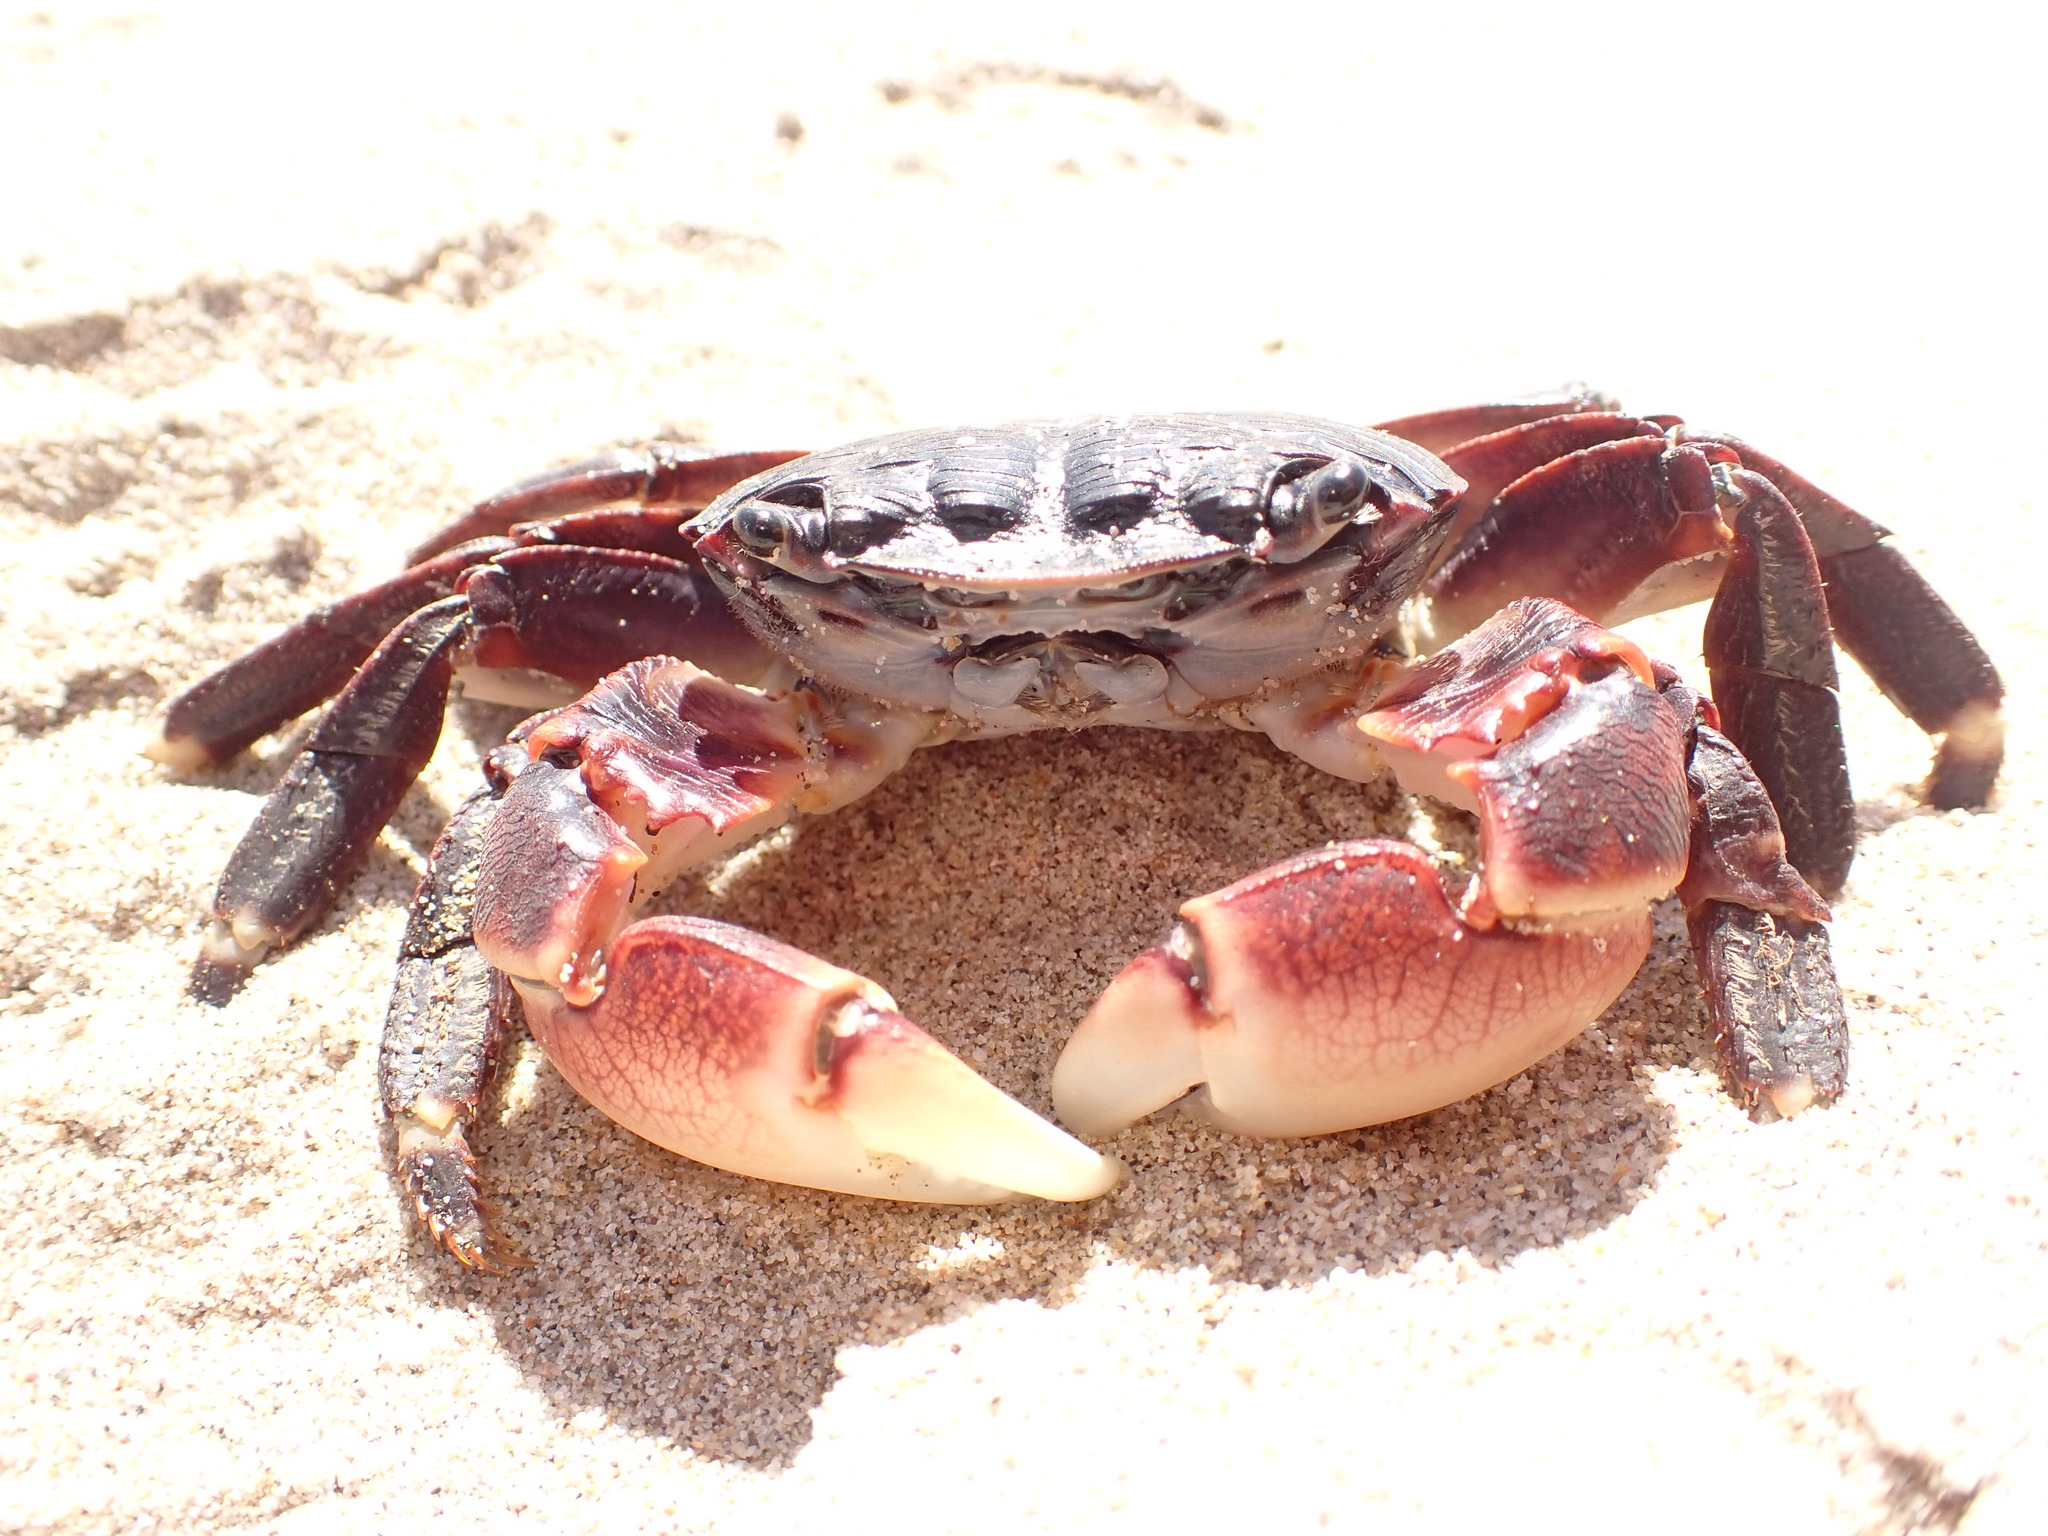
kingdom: Animalia
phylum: Arthropoda
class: Malacostraca
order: Decapoda
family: Grapsidae
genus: Pachygrapsus
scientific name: Pachygrapsus crassipes
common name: Striped shore crab
